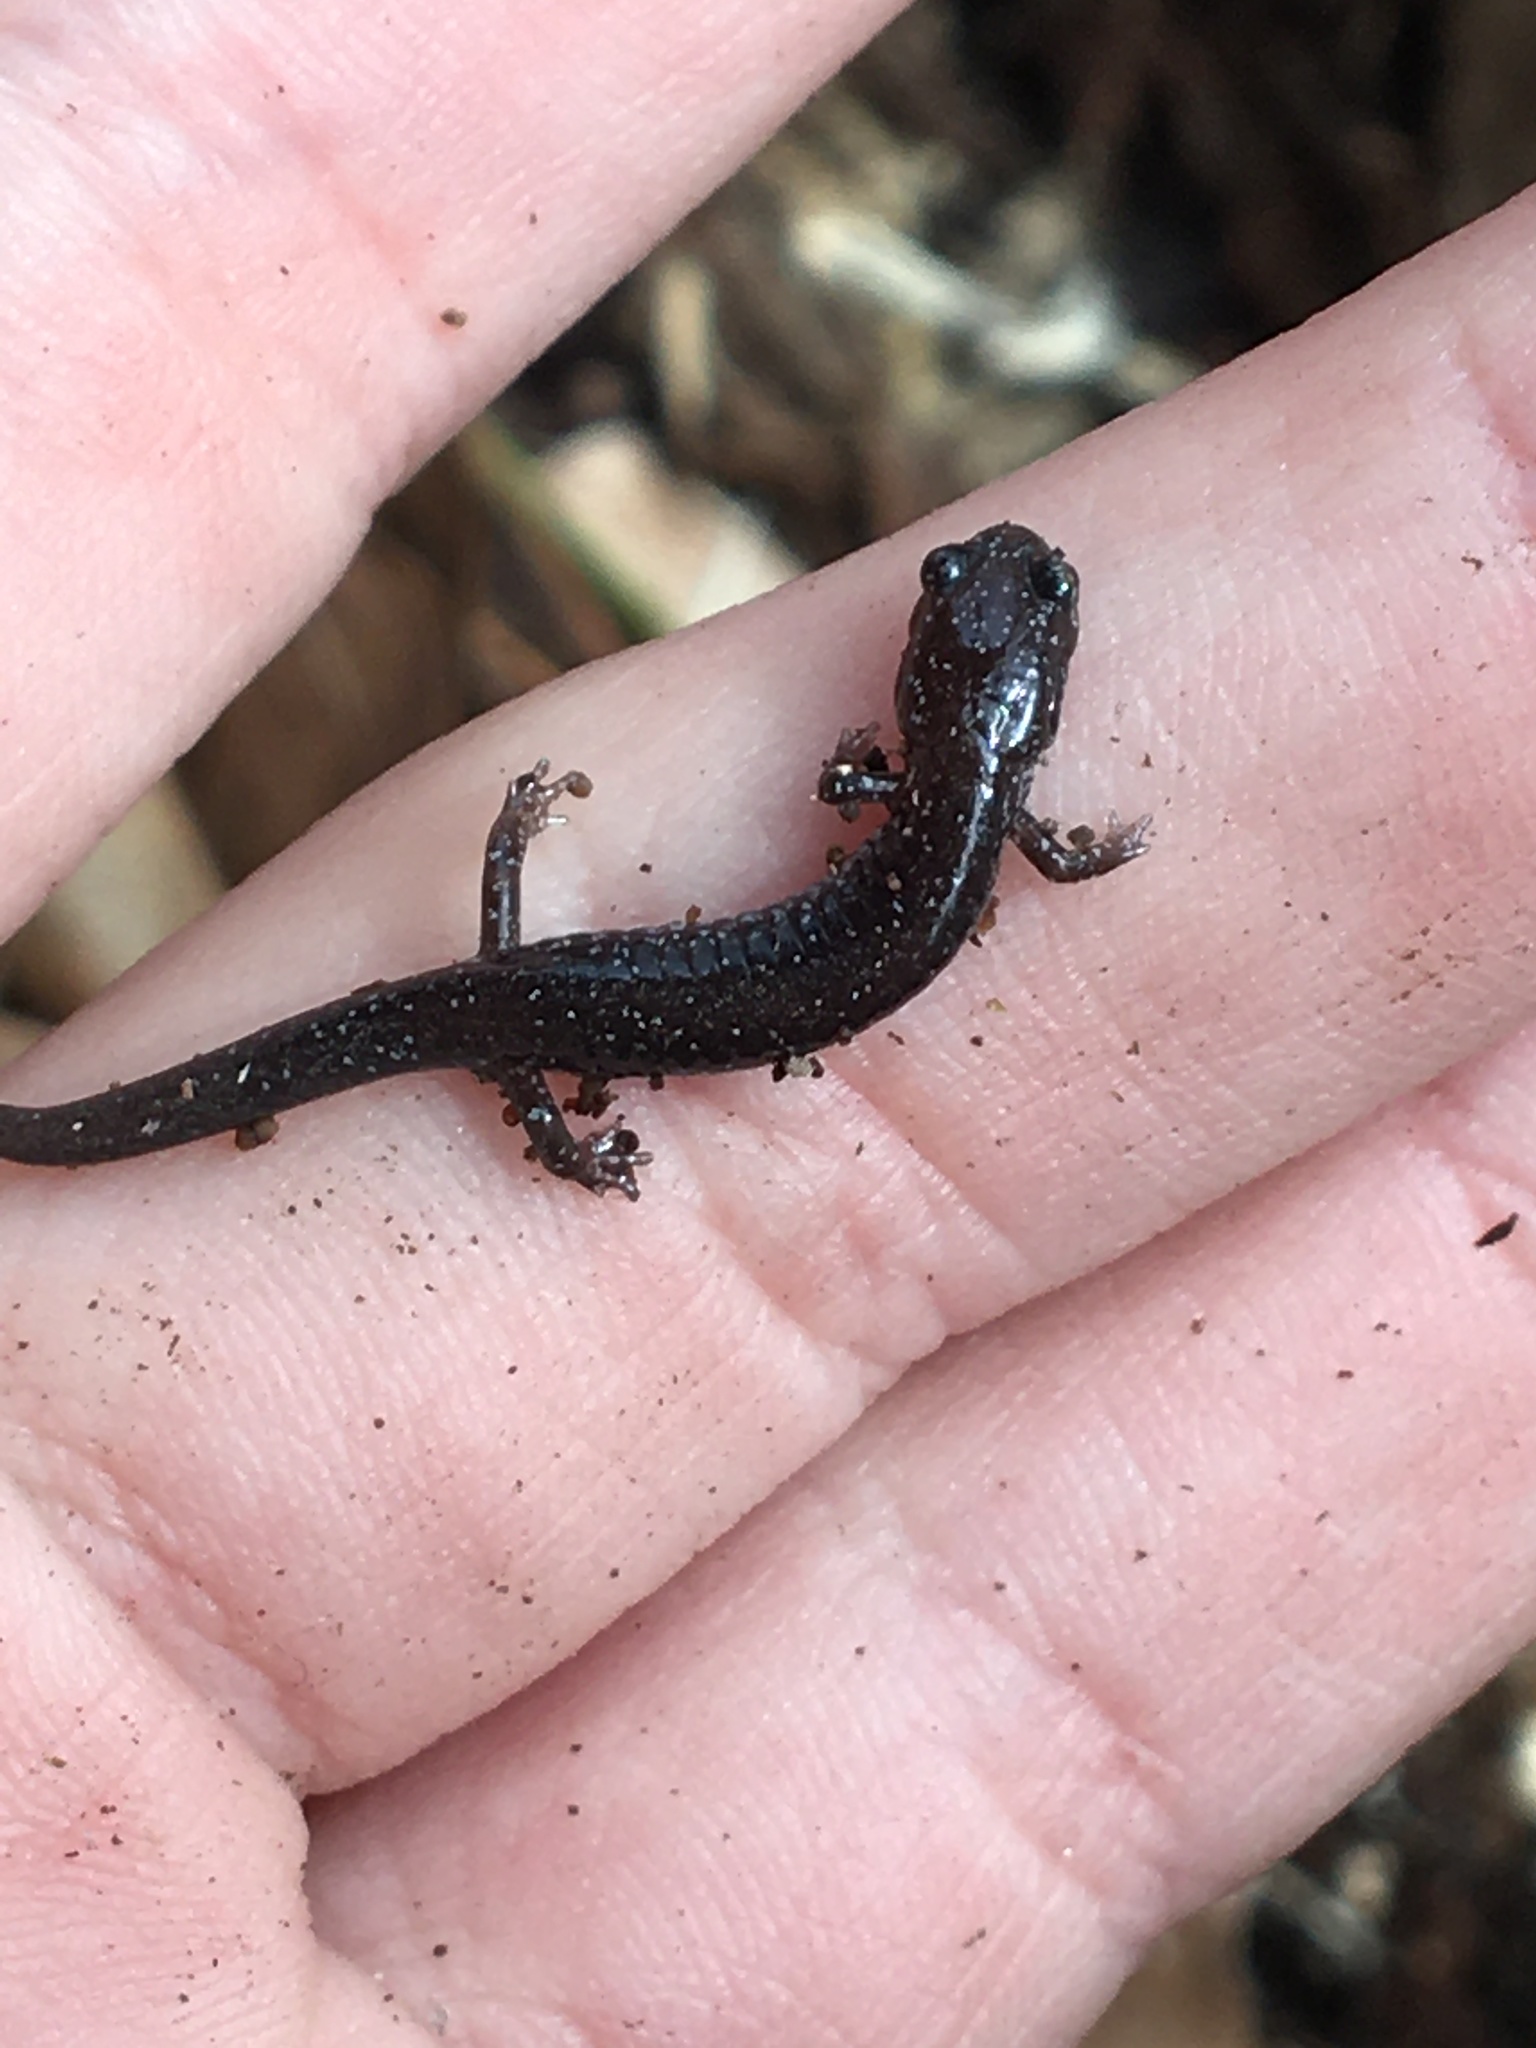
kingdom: Animalia
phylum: Chordata
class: Amphibia
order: Caudata
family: Plethodontidae
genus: Plethodon
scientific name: Plethodon cinereus
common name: Redback salamander
